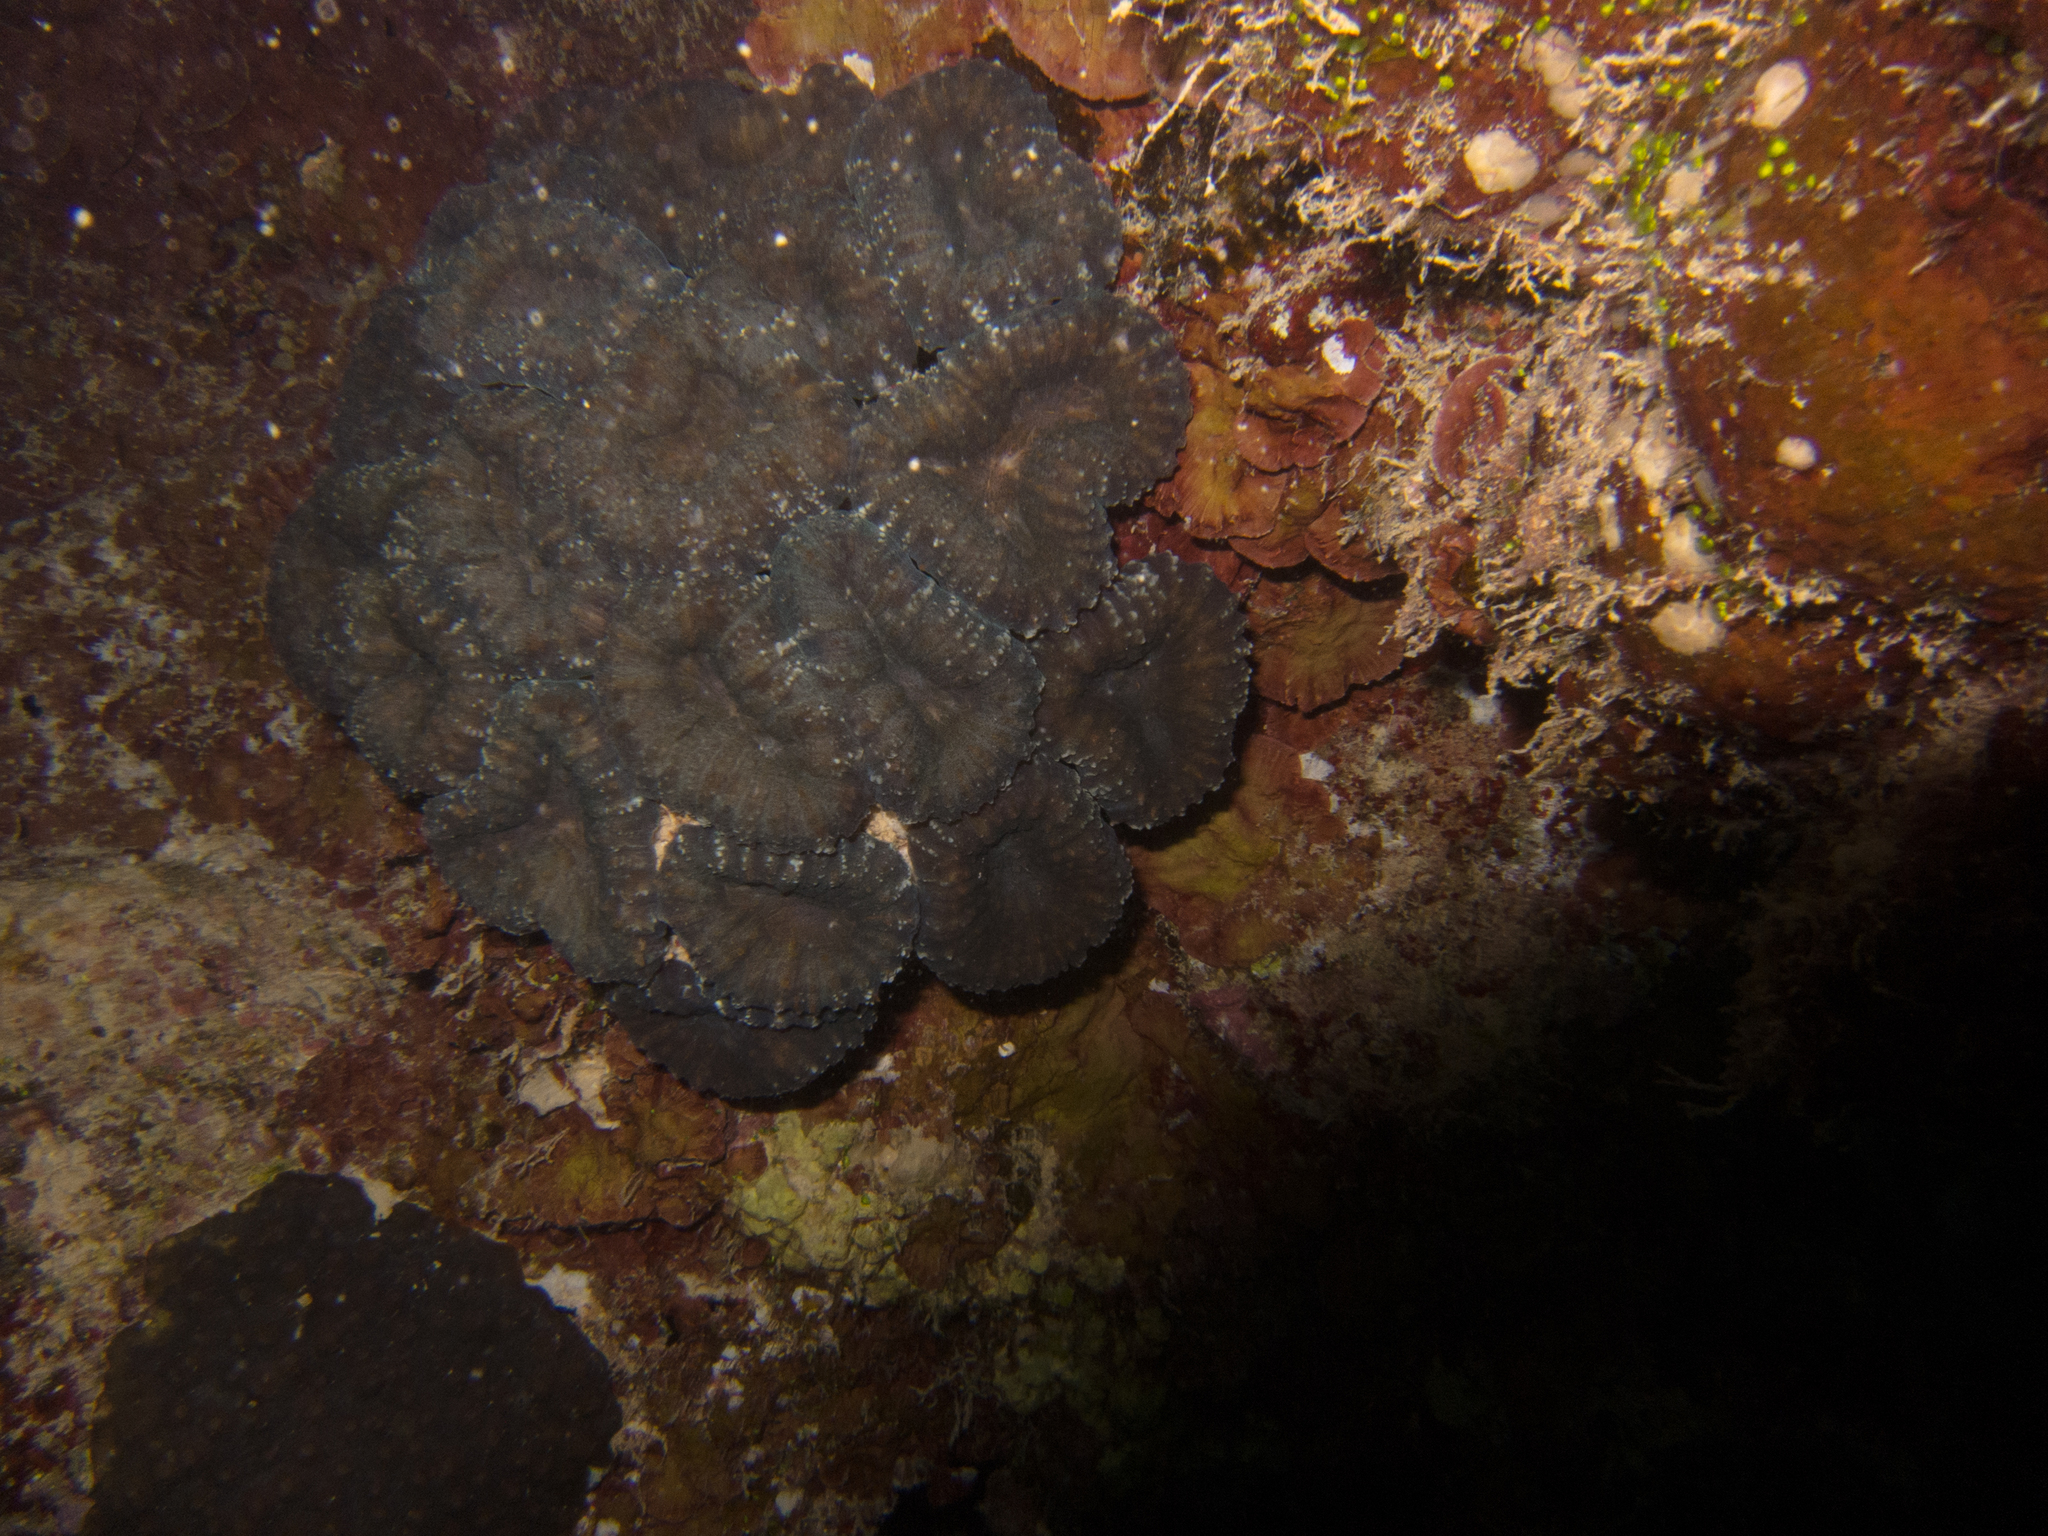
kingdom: Animalia
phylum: Cnidaria
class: Anthozoa
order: Scleractinia
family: Lobophylliidae
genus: Lobophyllia
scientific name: Lobophyllia corymbosa
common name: Lobed cactus coral
